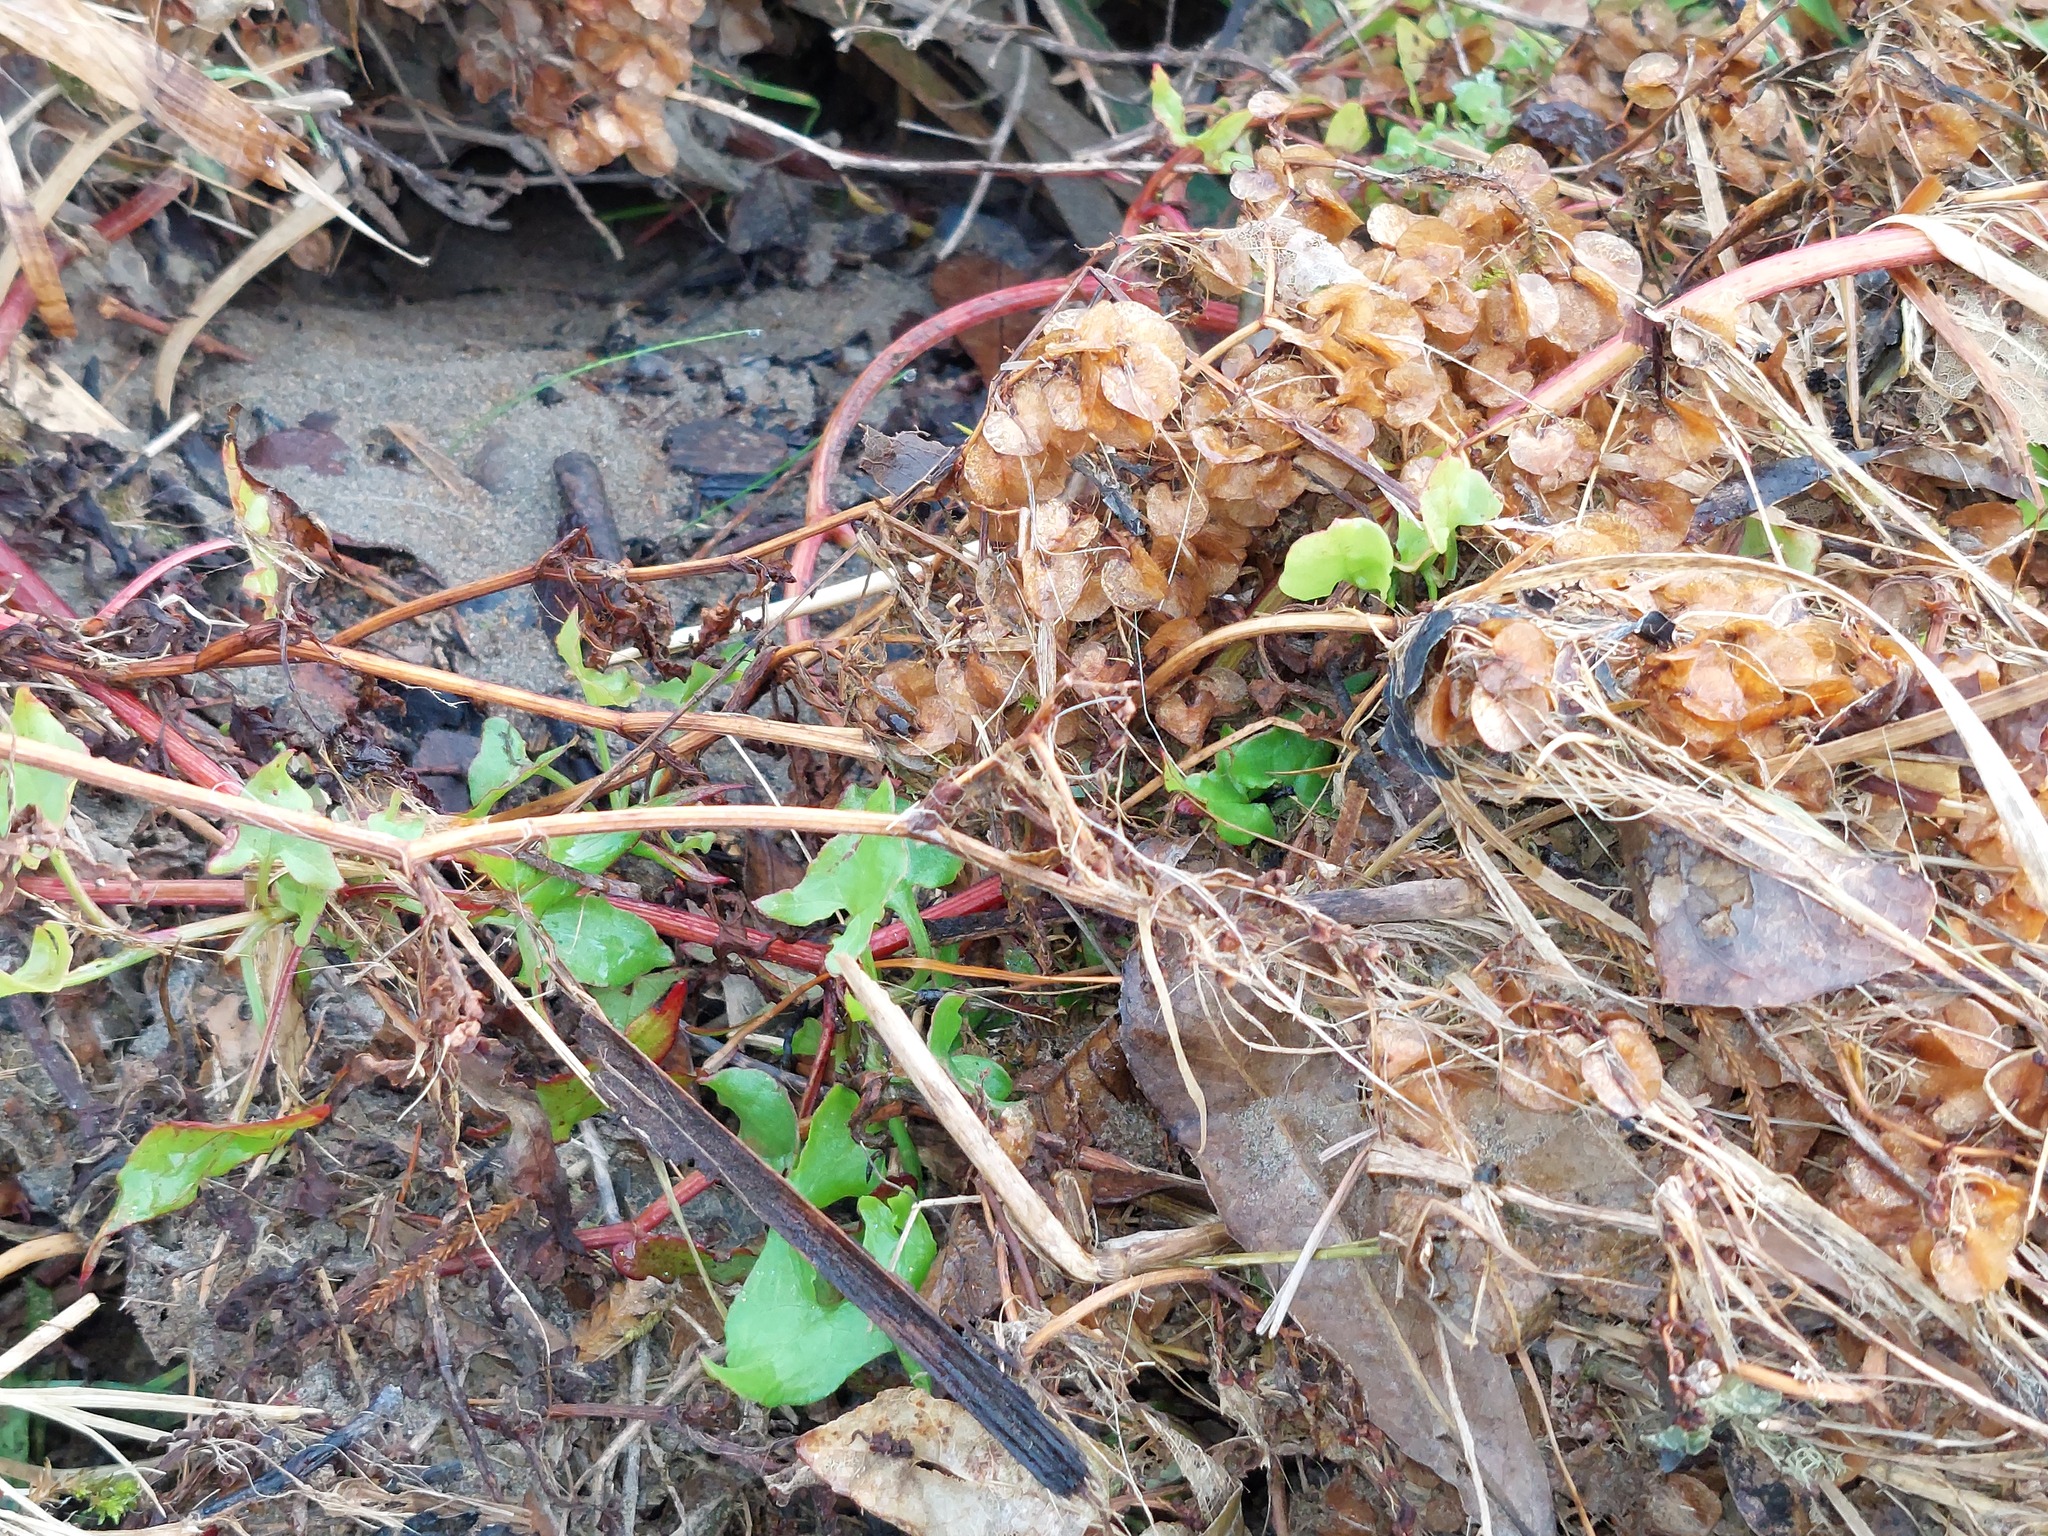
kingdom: Plantae
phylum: Tracheophyta
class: Magnoliopsida
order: Caryophyllales
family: Polygonaceae
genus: Rumex
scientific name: Rumex sagittatus
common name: Climbing dock
